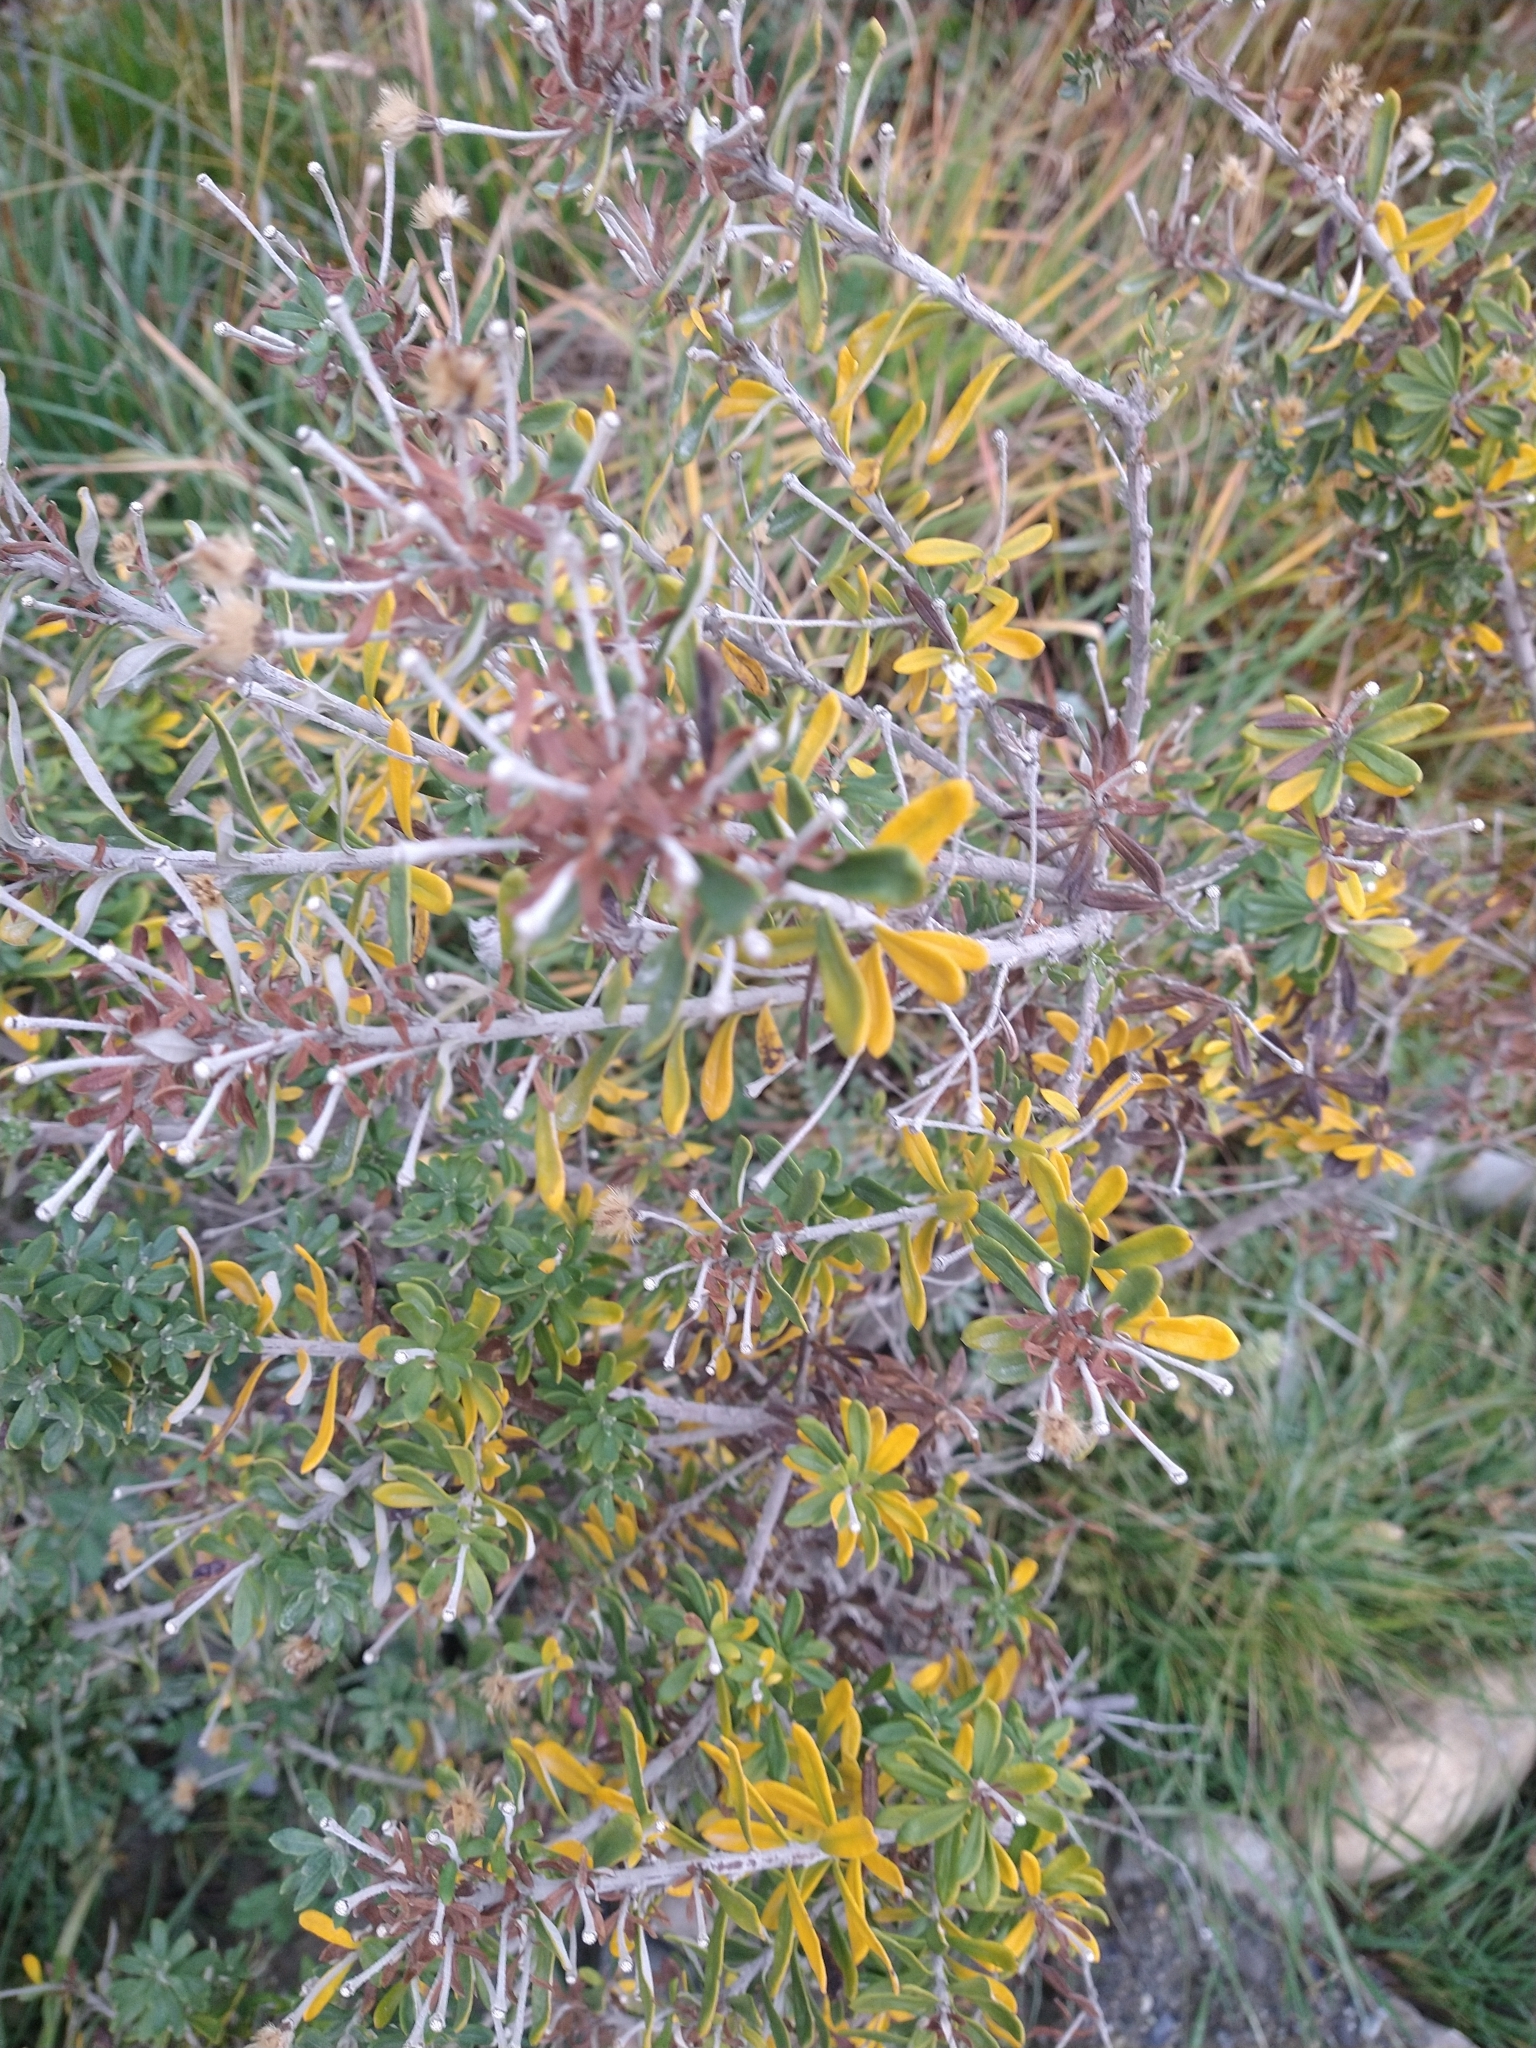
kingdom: Plantae
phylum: Tracheophyta
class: Magnoliopsida
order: Asterales
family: Asteraceae
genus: Chiliotrichum
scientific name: Chiliotrichum diffusum
